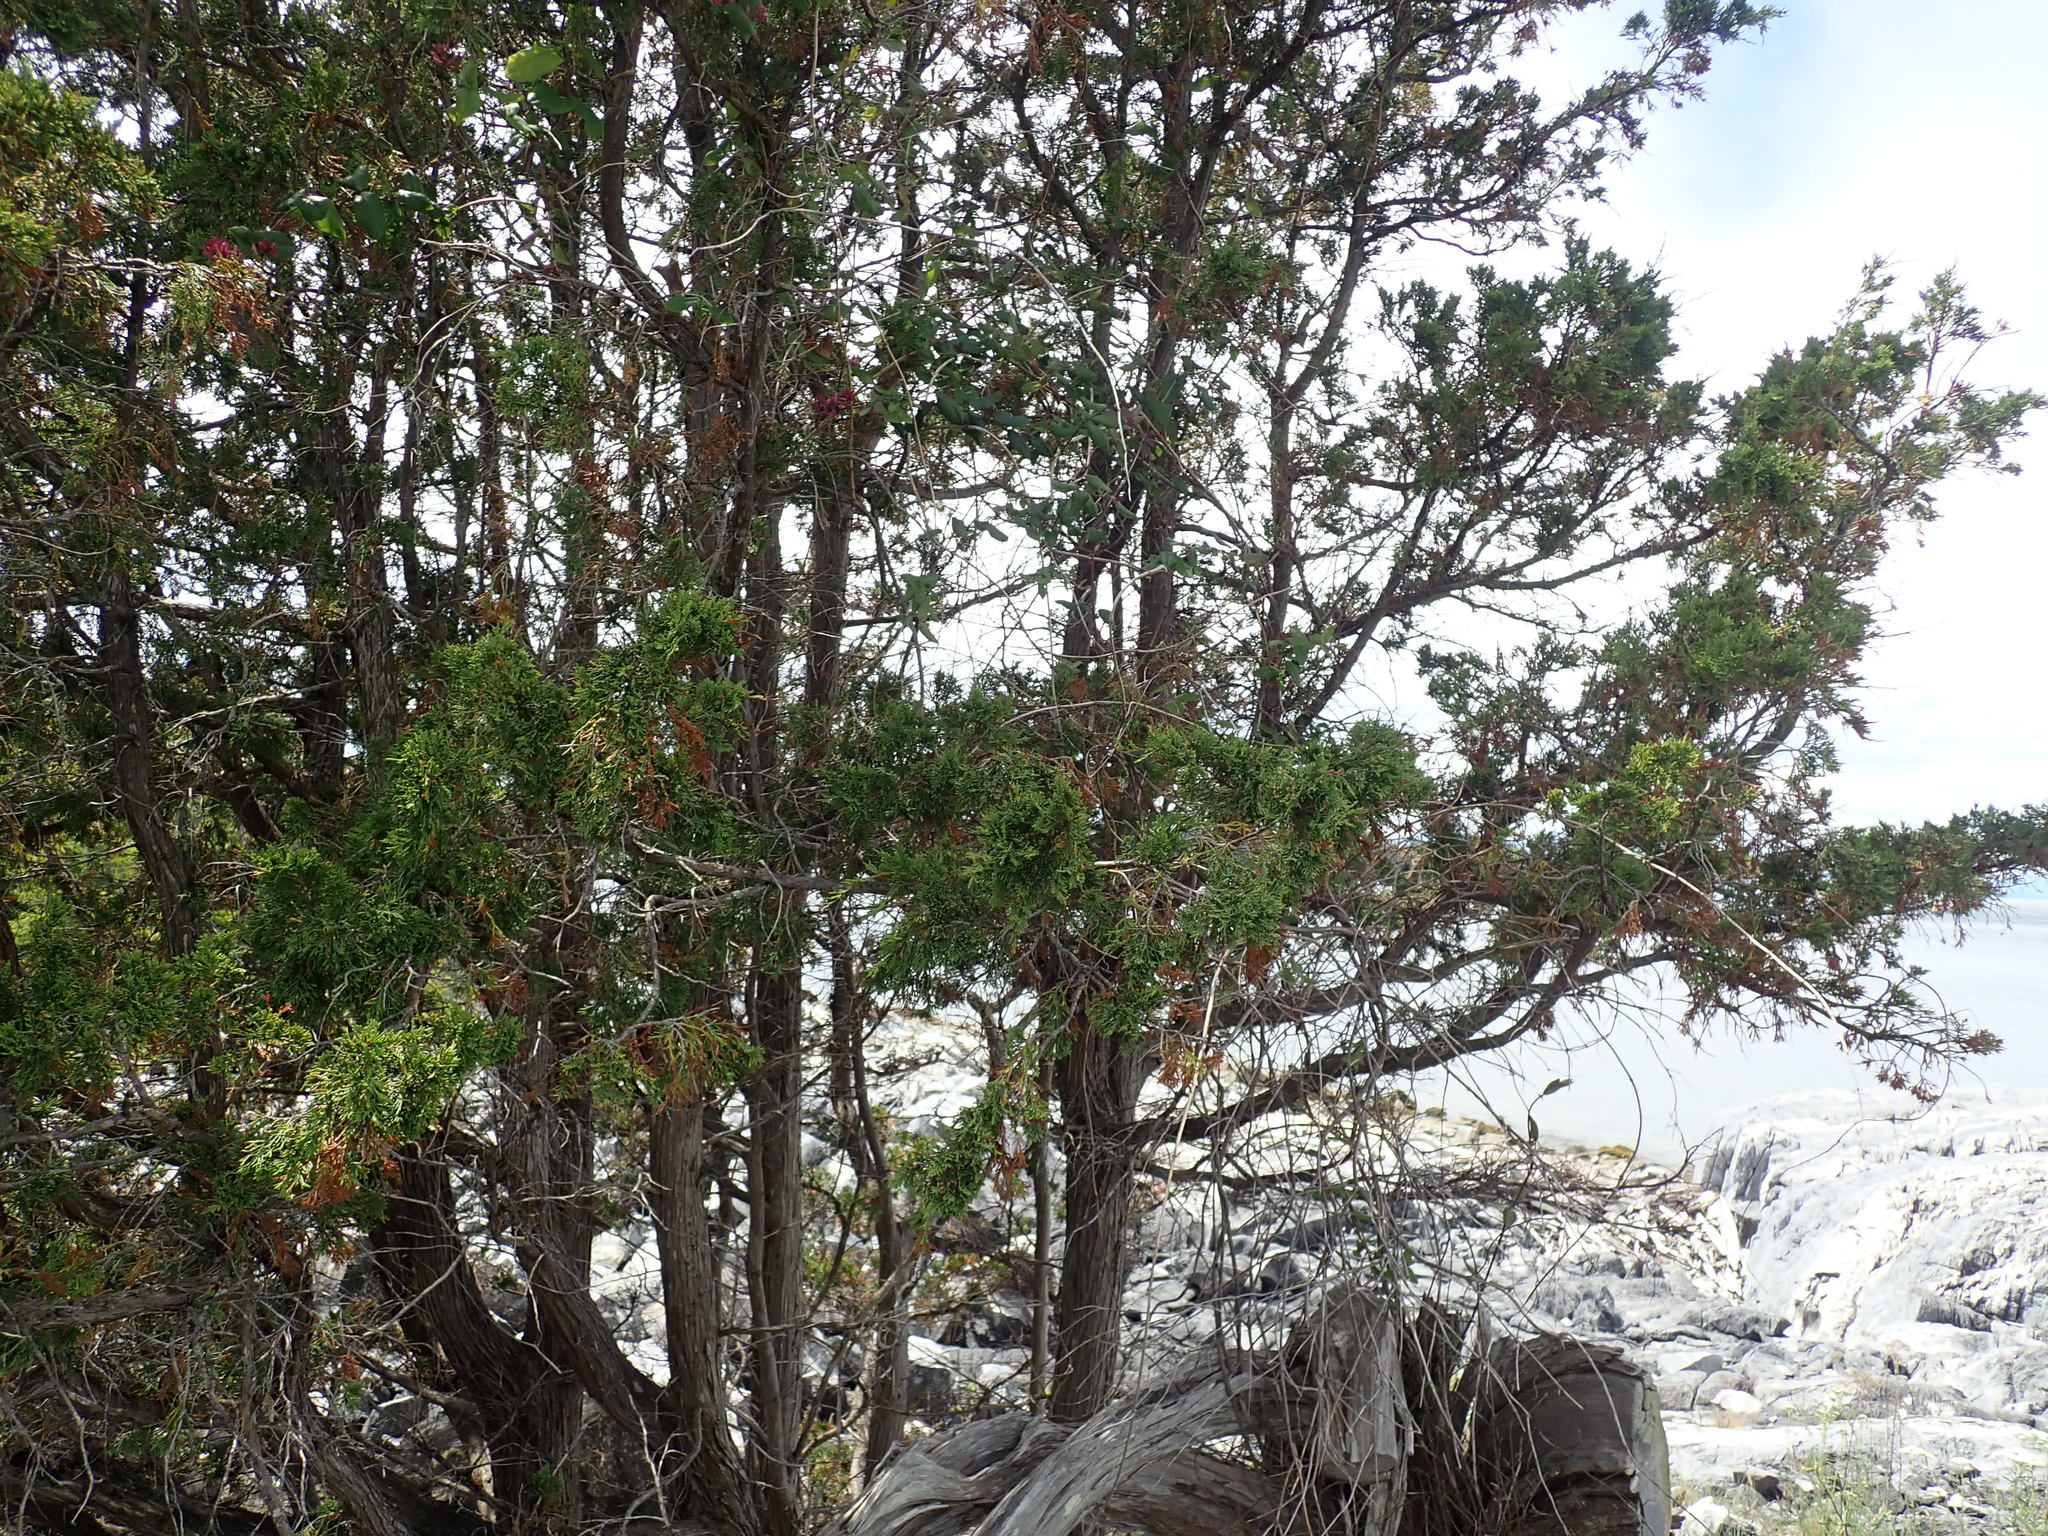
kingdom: Plantae
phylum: Tracheophyta
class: Pinopsida
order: Pinales
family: Cupressaceae
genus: Juniperus
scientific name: Juniperus scopulorum
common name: Rocky mountain juniper
